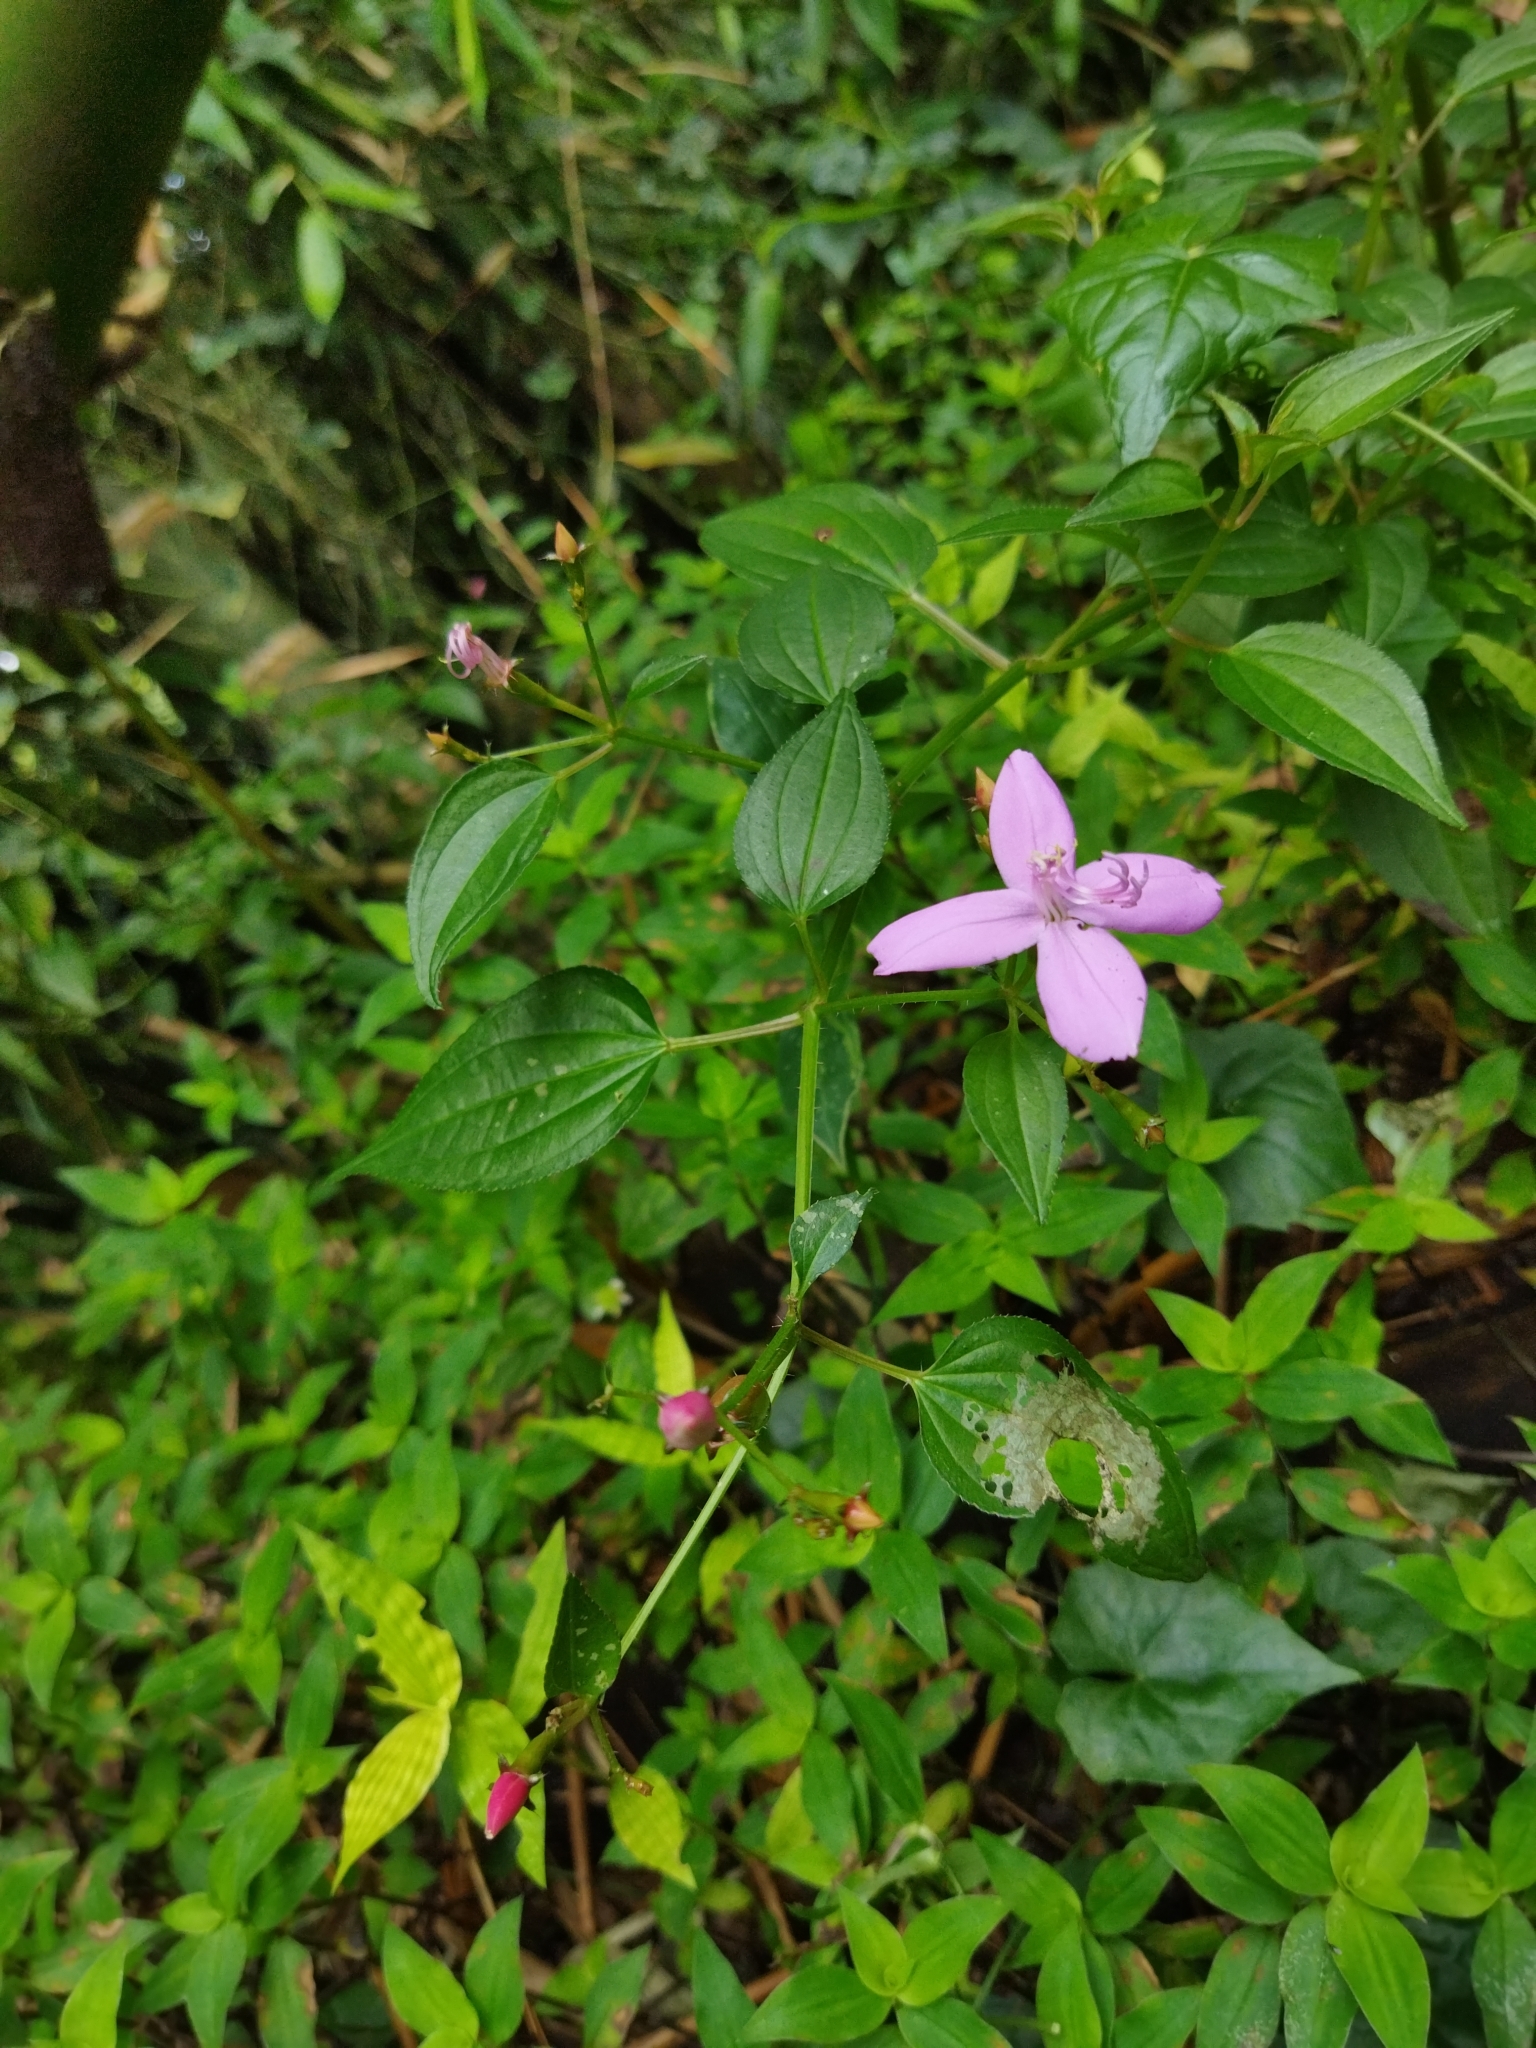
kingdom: Plantae
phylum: Tracheophyta
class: Magnoliopsida
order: Myrtales
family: Melastomataceae
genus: Arthrostemma
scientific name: Arthrostemma ciliatum
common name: Everblooming eavender
